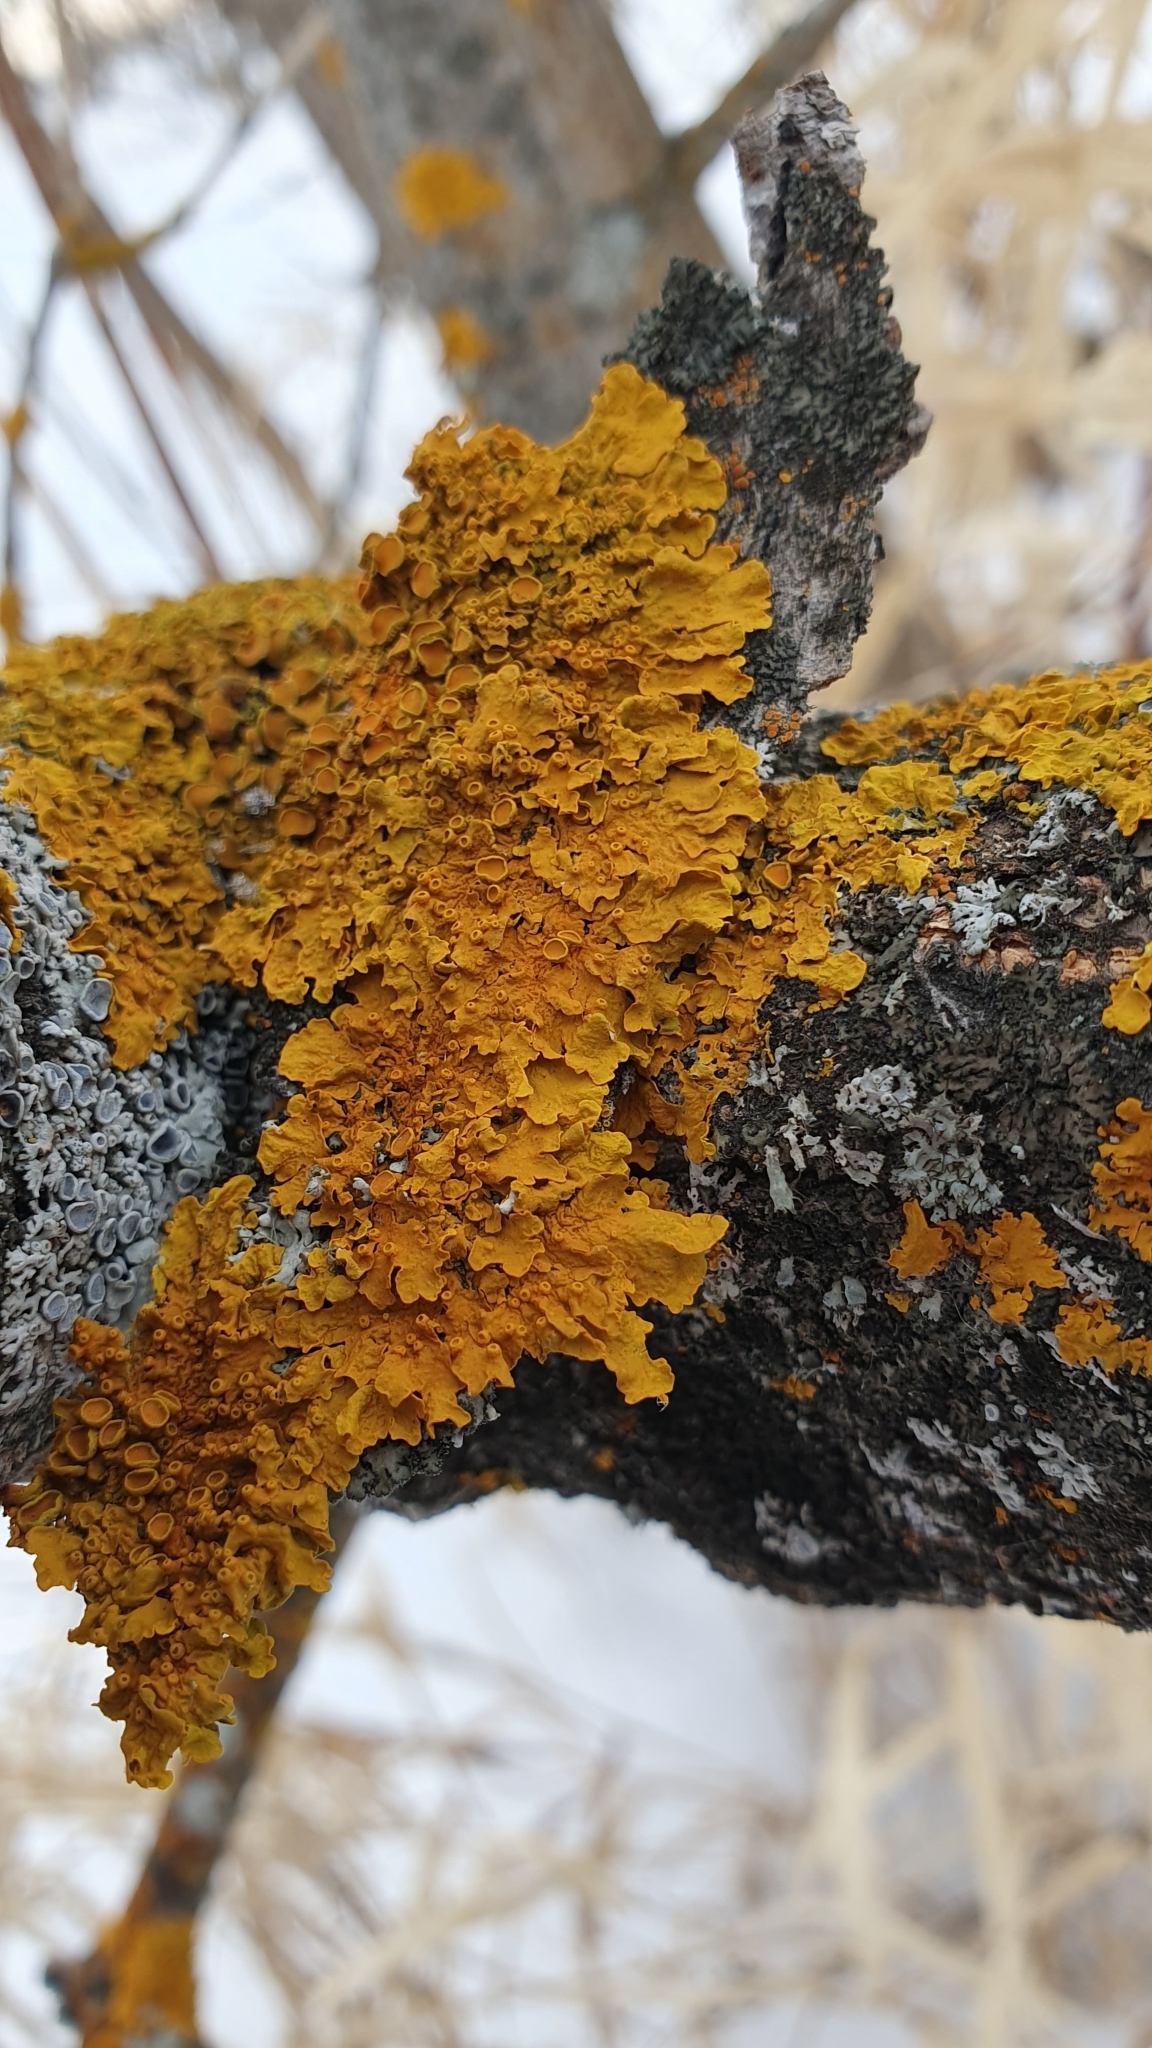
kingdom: Fungi
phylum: Ascomycota
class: Lecanoromycetes
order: Teloschistales
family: Teloschistaceae
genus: Xanthoria
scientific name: Xanthoria parietina
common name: Common orange lichen
